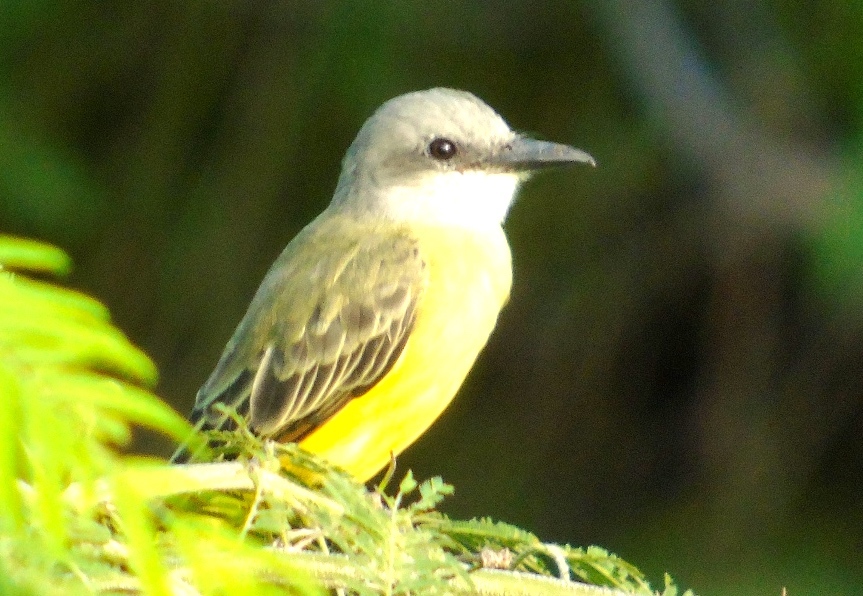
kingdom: Animalia
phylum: Chordata
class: Aves
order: Passeriformes
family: Tyrannidae
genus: Tyrannus
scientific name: Tyrannus melancholicus
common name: Tropical kingbird
